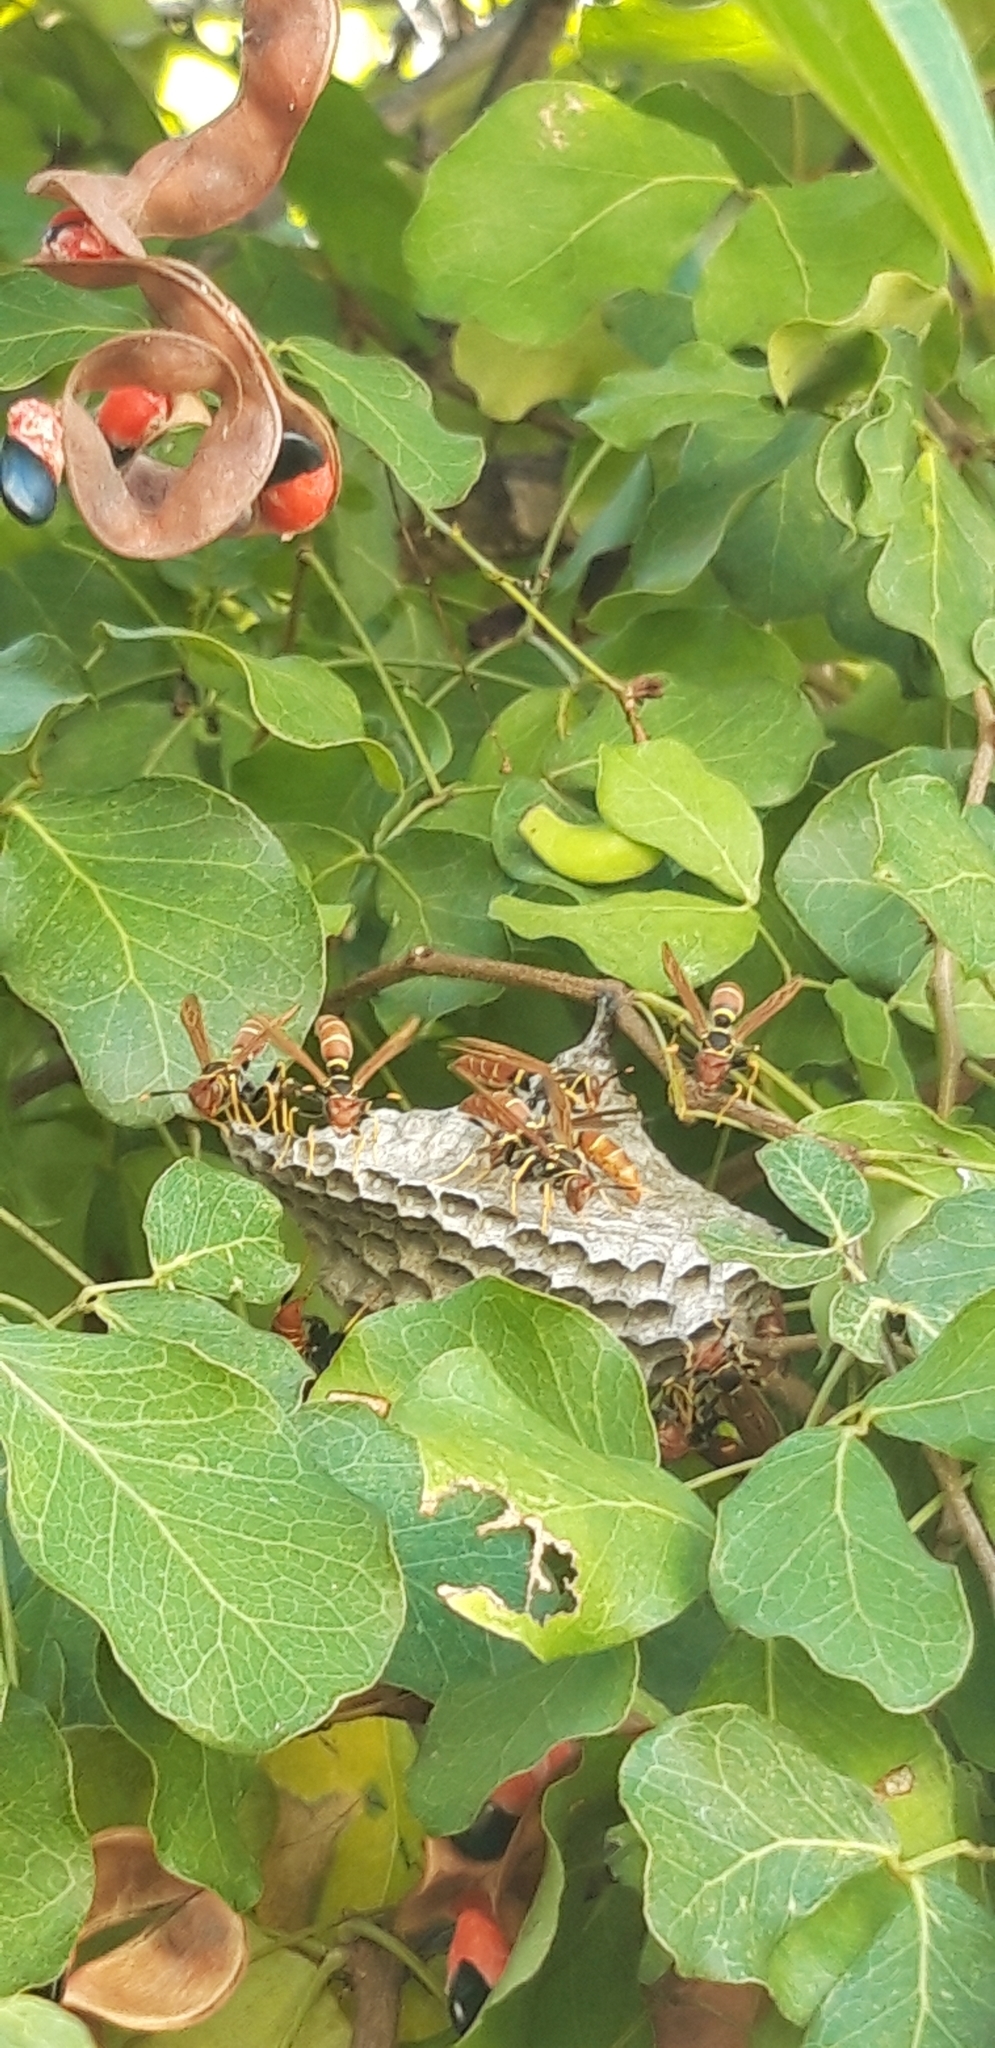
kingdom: Animalia
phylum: Arthropoda
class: Insecta
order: Hymenoptera
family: Eumenidae
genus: Polistes
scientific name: Polistes crinitus
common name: Jack spaniard
